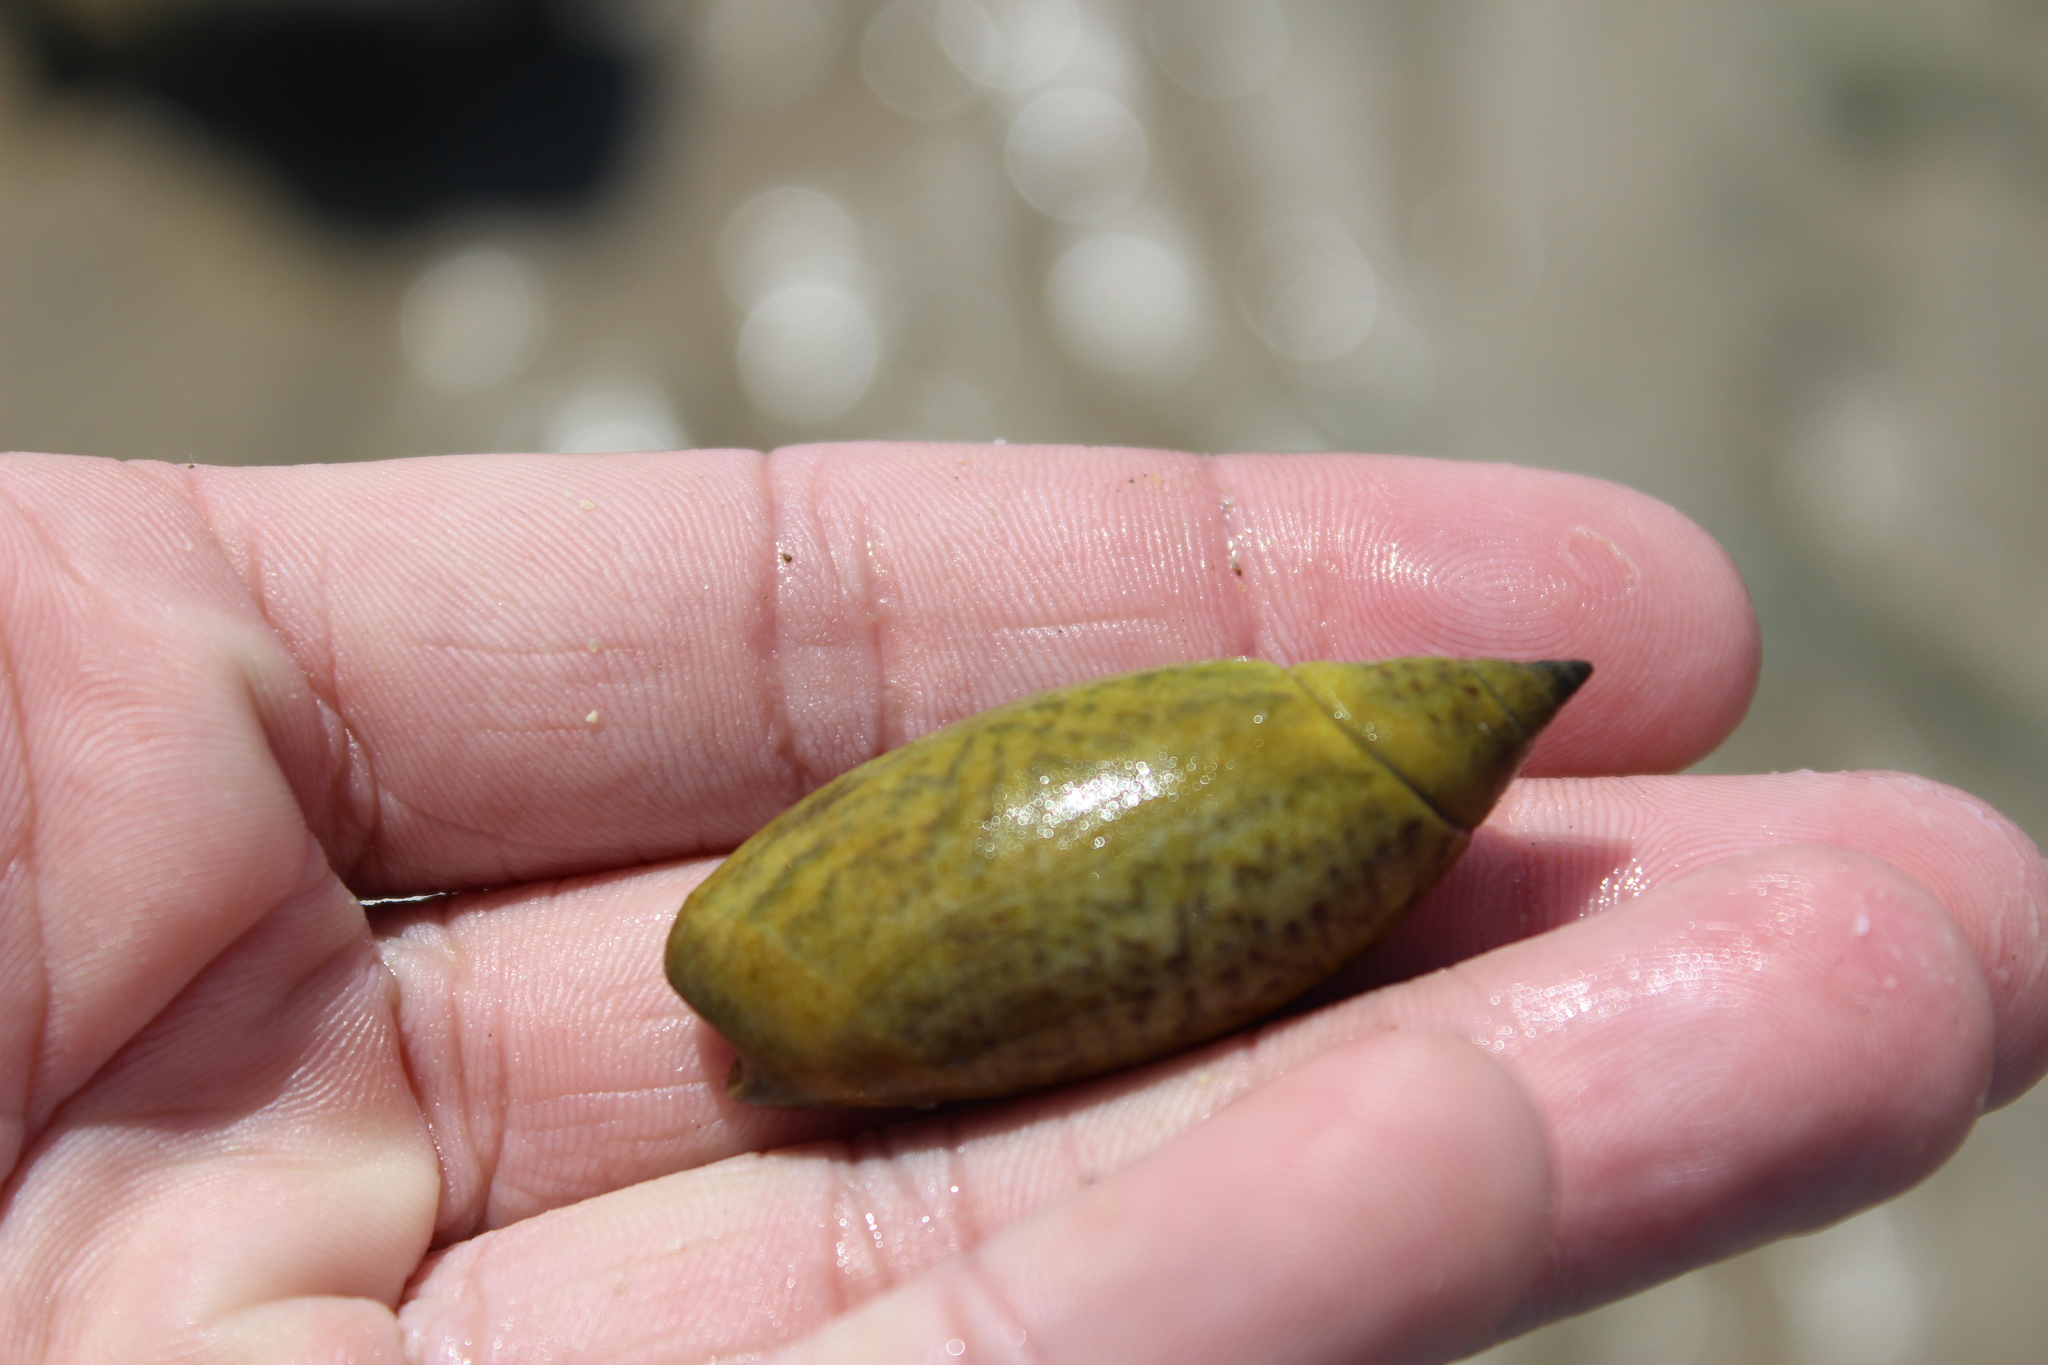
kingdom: Animalia
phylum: Mollusca
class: Gastropoda
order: Neogastropoda
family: Olividae
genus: Agaronia
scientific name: Agaronia testacea
